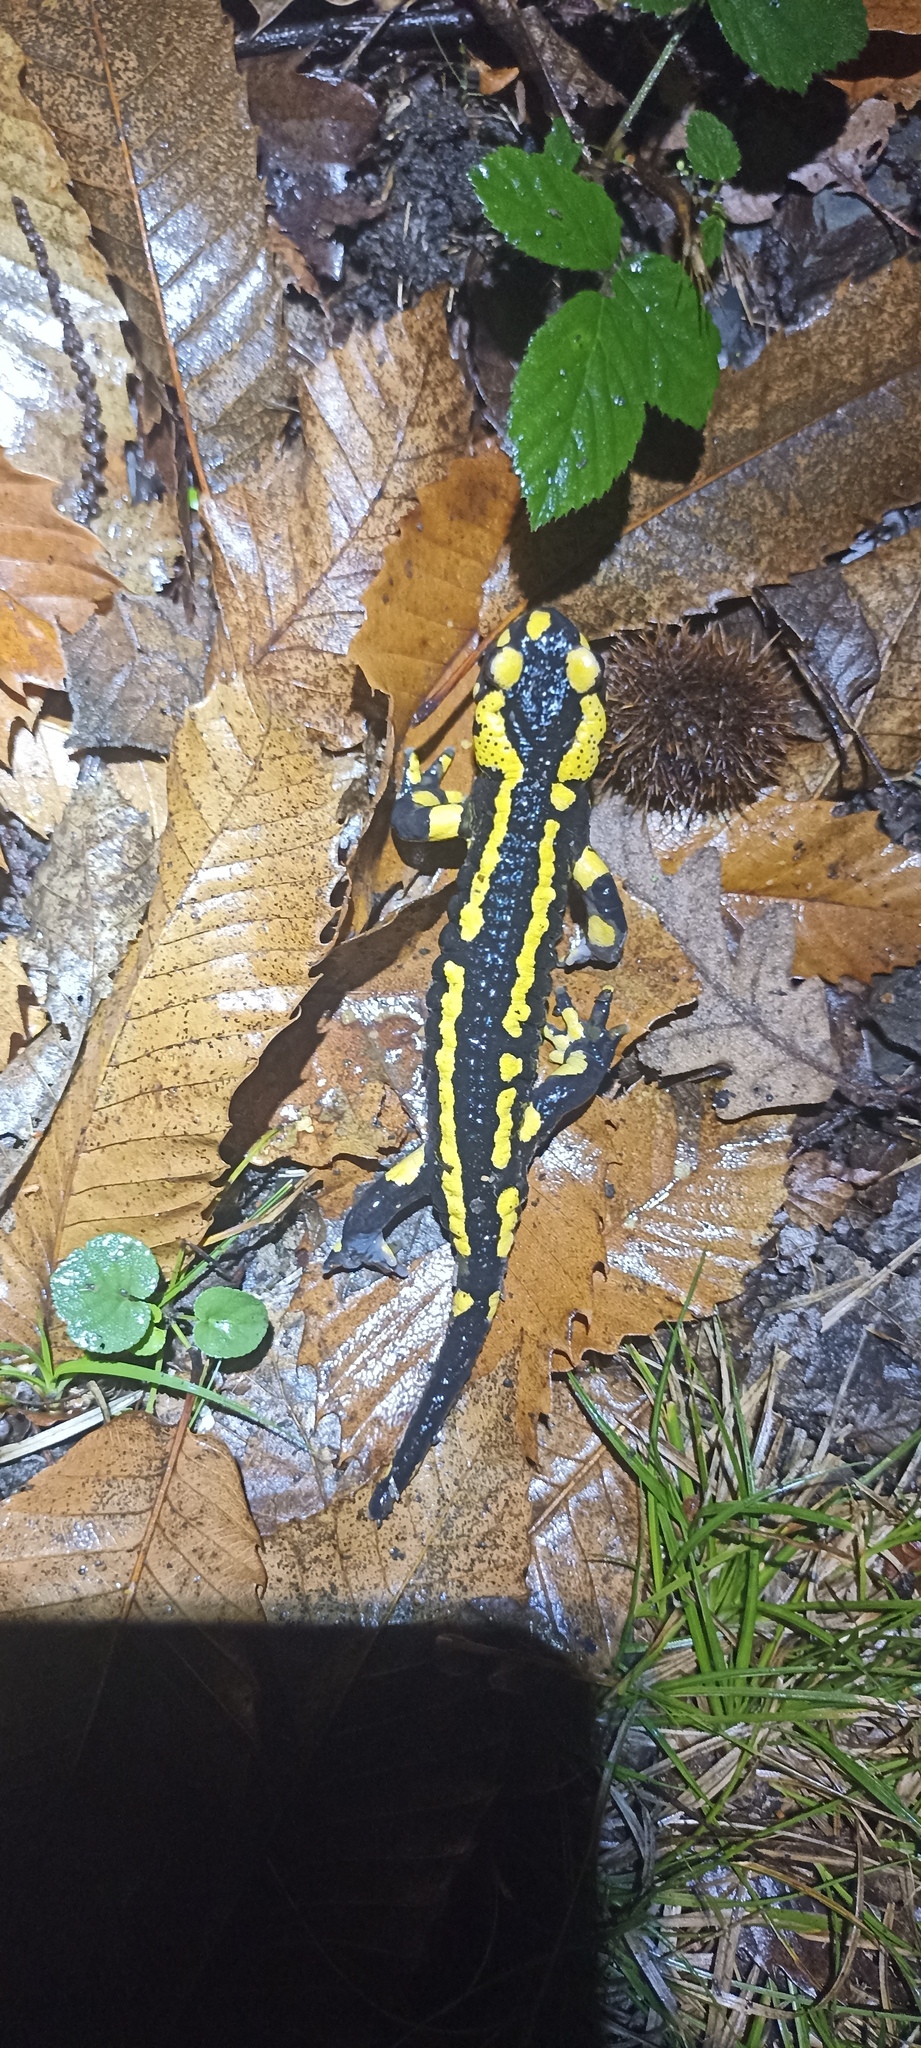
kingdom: Animalia
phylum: Chordata
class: Amphibia
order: Caudata
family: Salamandridae
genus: Salamandra
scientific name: Salamandra salamandra
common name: Fire salamander
